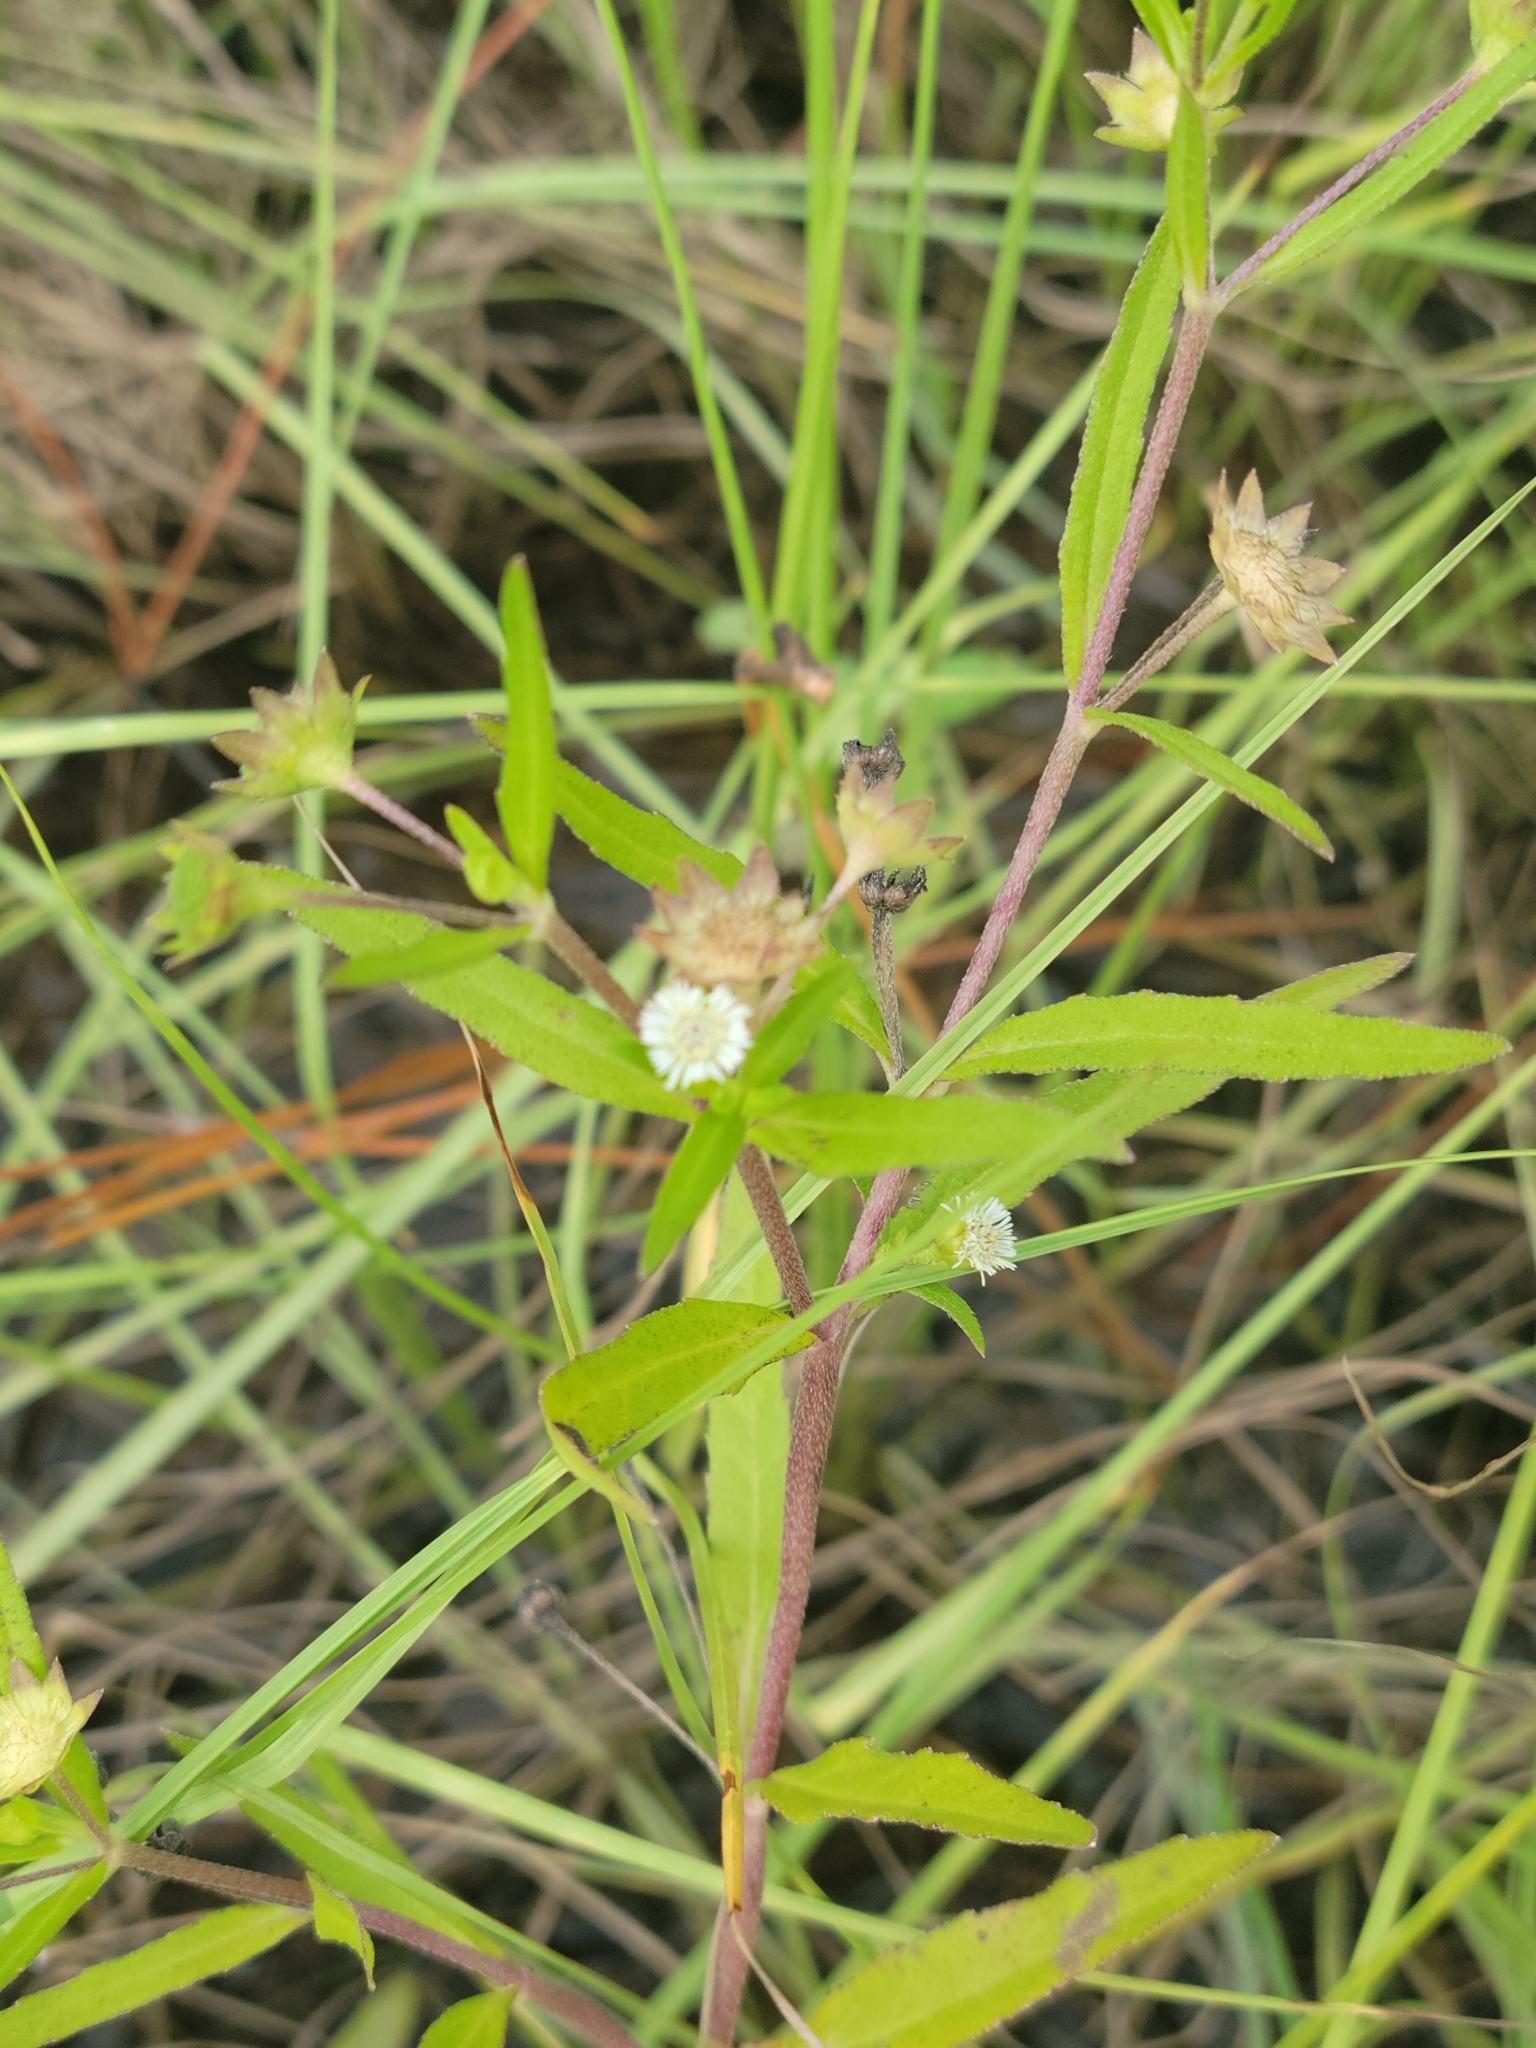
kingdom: Plantae
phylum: Tracheophyta
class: Magnoliopsida
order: Asterales
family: Asteraceae
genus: Eclipta
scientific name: Eclipta prostrata
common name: False daisy
